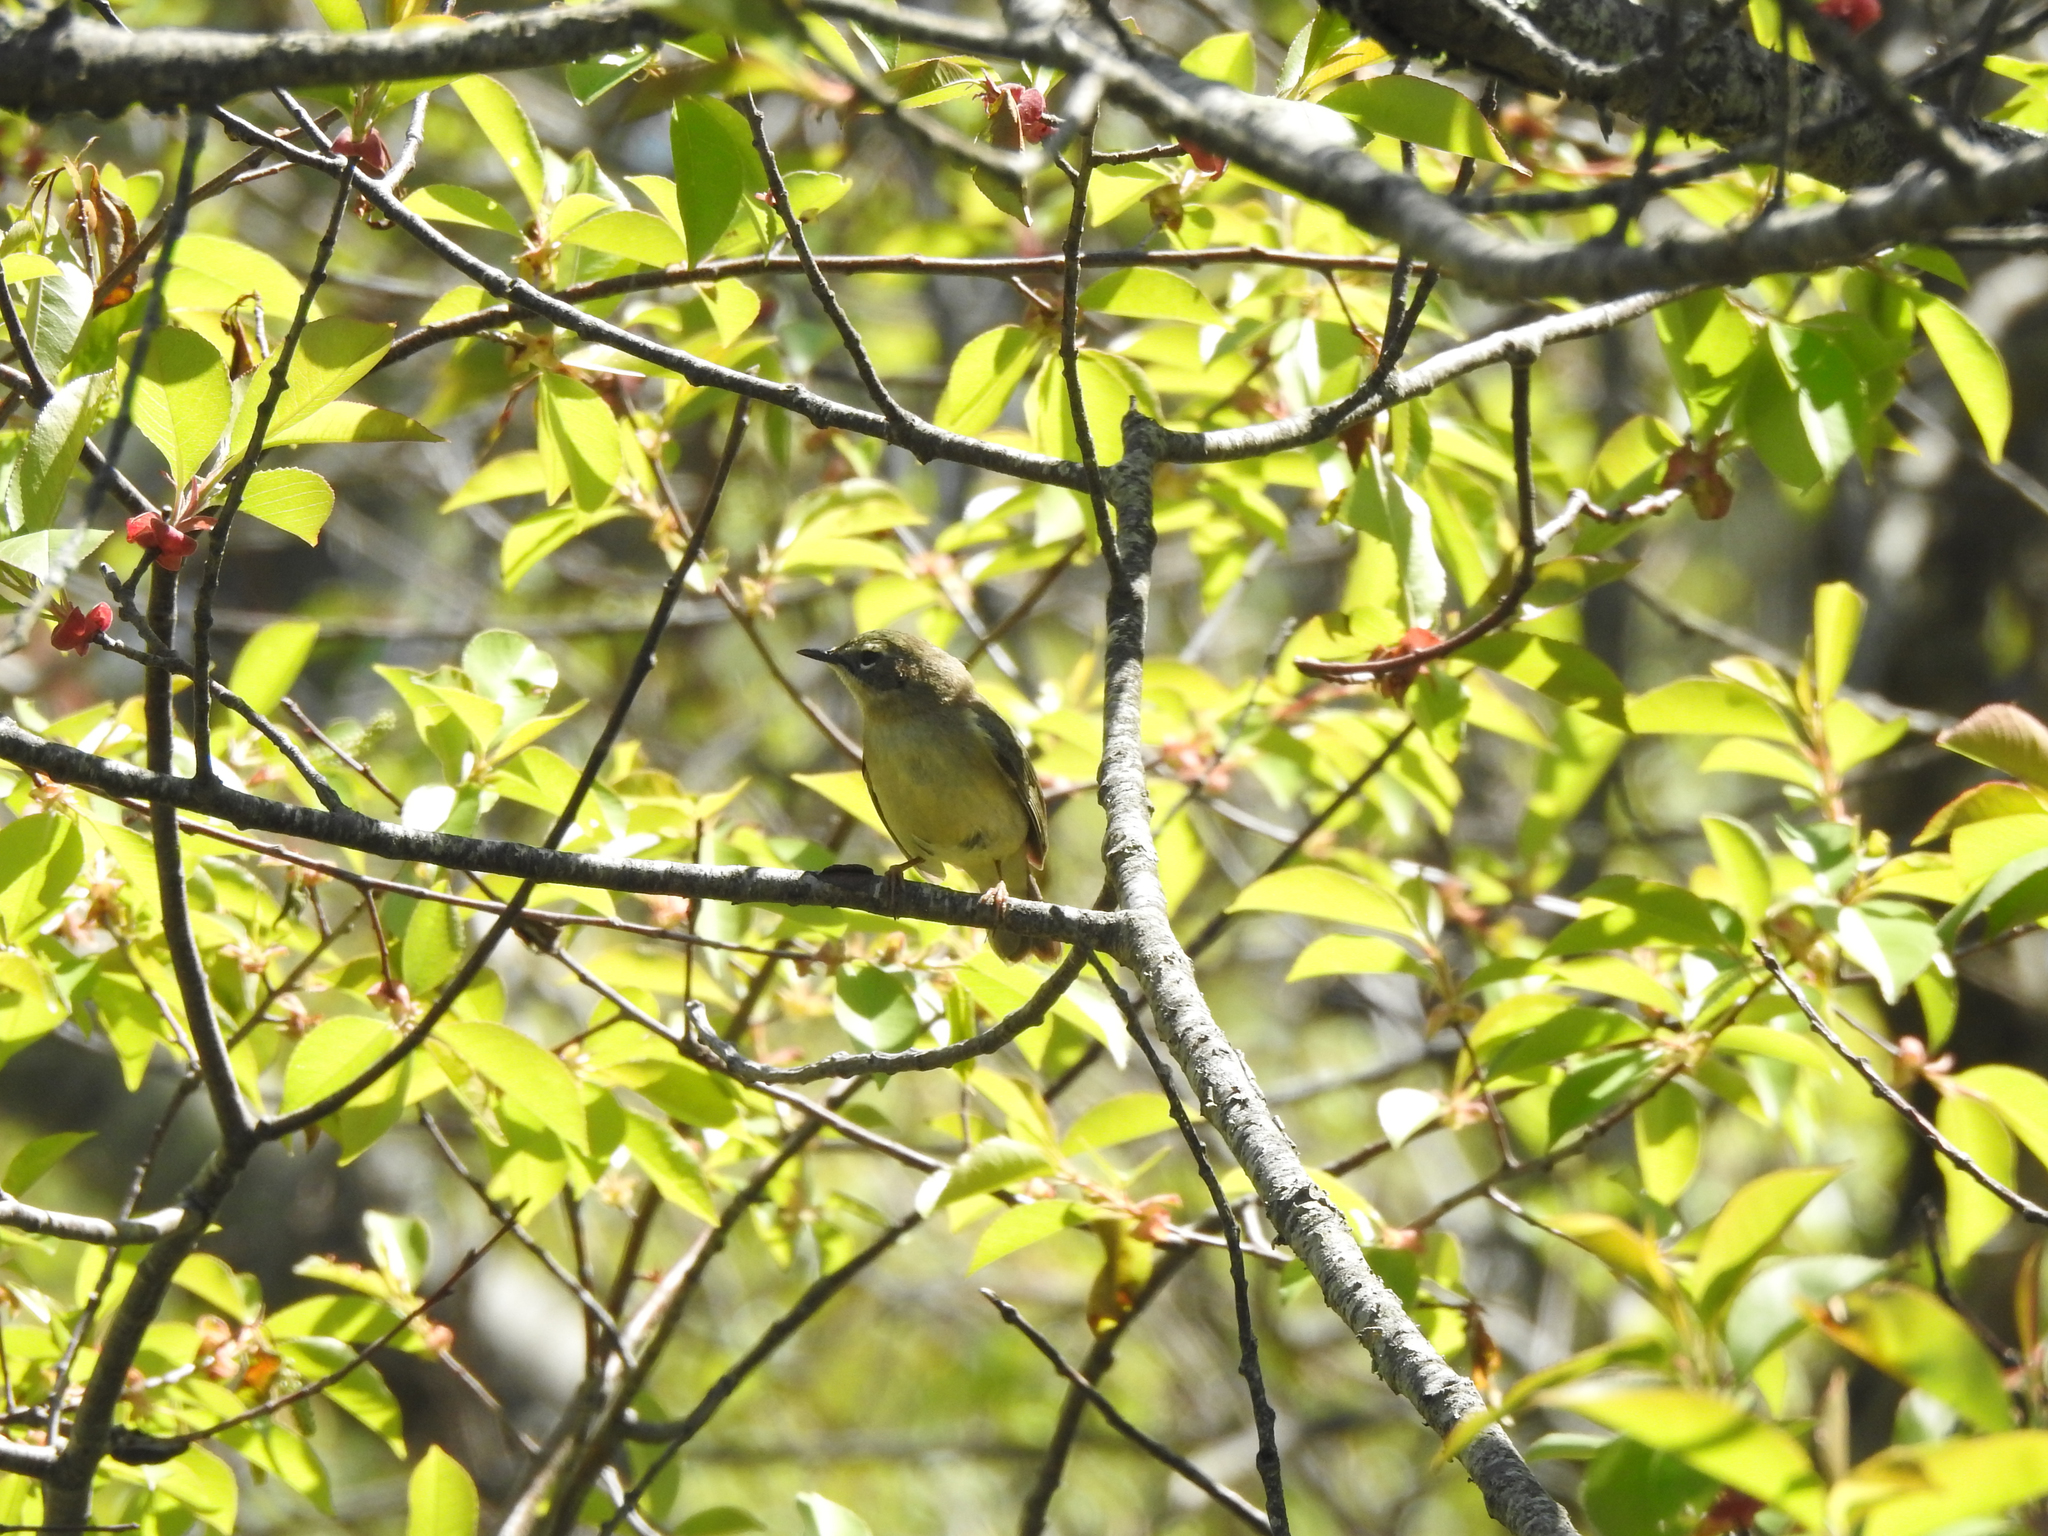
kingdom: Animalia
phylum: Chordata
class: Aves
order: Passeriformes
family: Parulidae
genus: Setophaga
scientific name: Setophaga caerulescens
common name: Black-throated blue warbler
